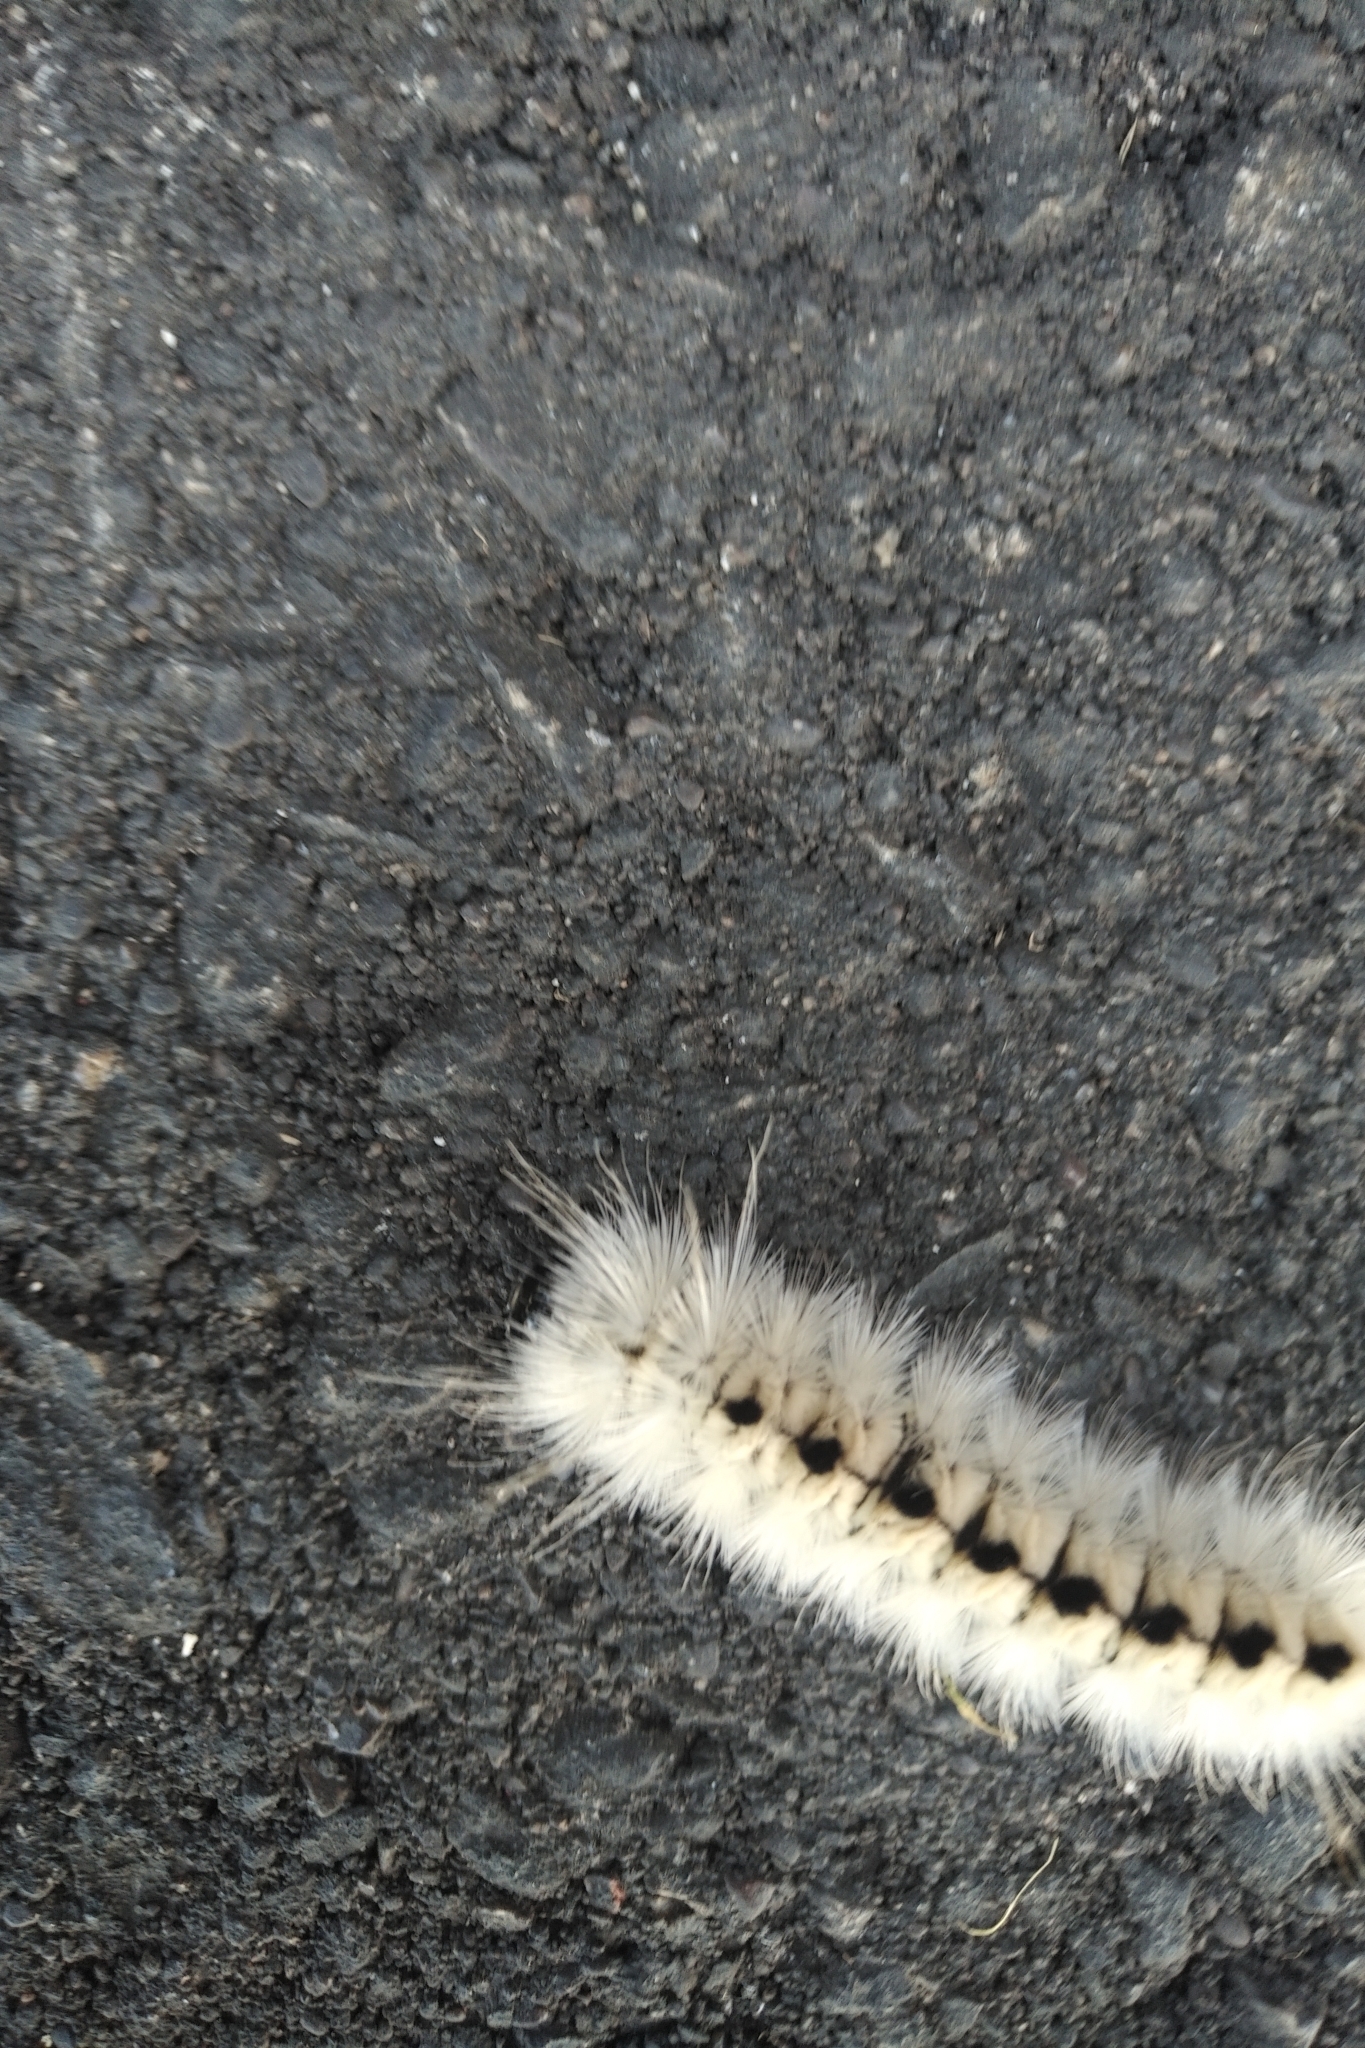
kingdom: Animalia
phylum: Arthropoda
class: Insecta
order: Lepidoptera
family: Erebidae
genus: Lophocampa
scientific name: Lophocampa caryae
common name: Hickory tussock moth
